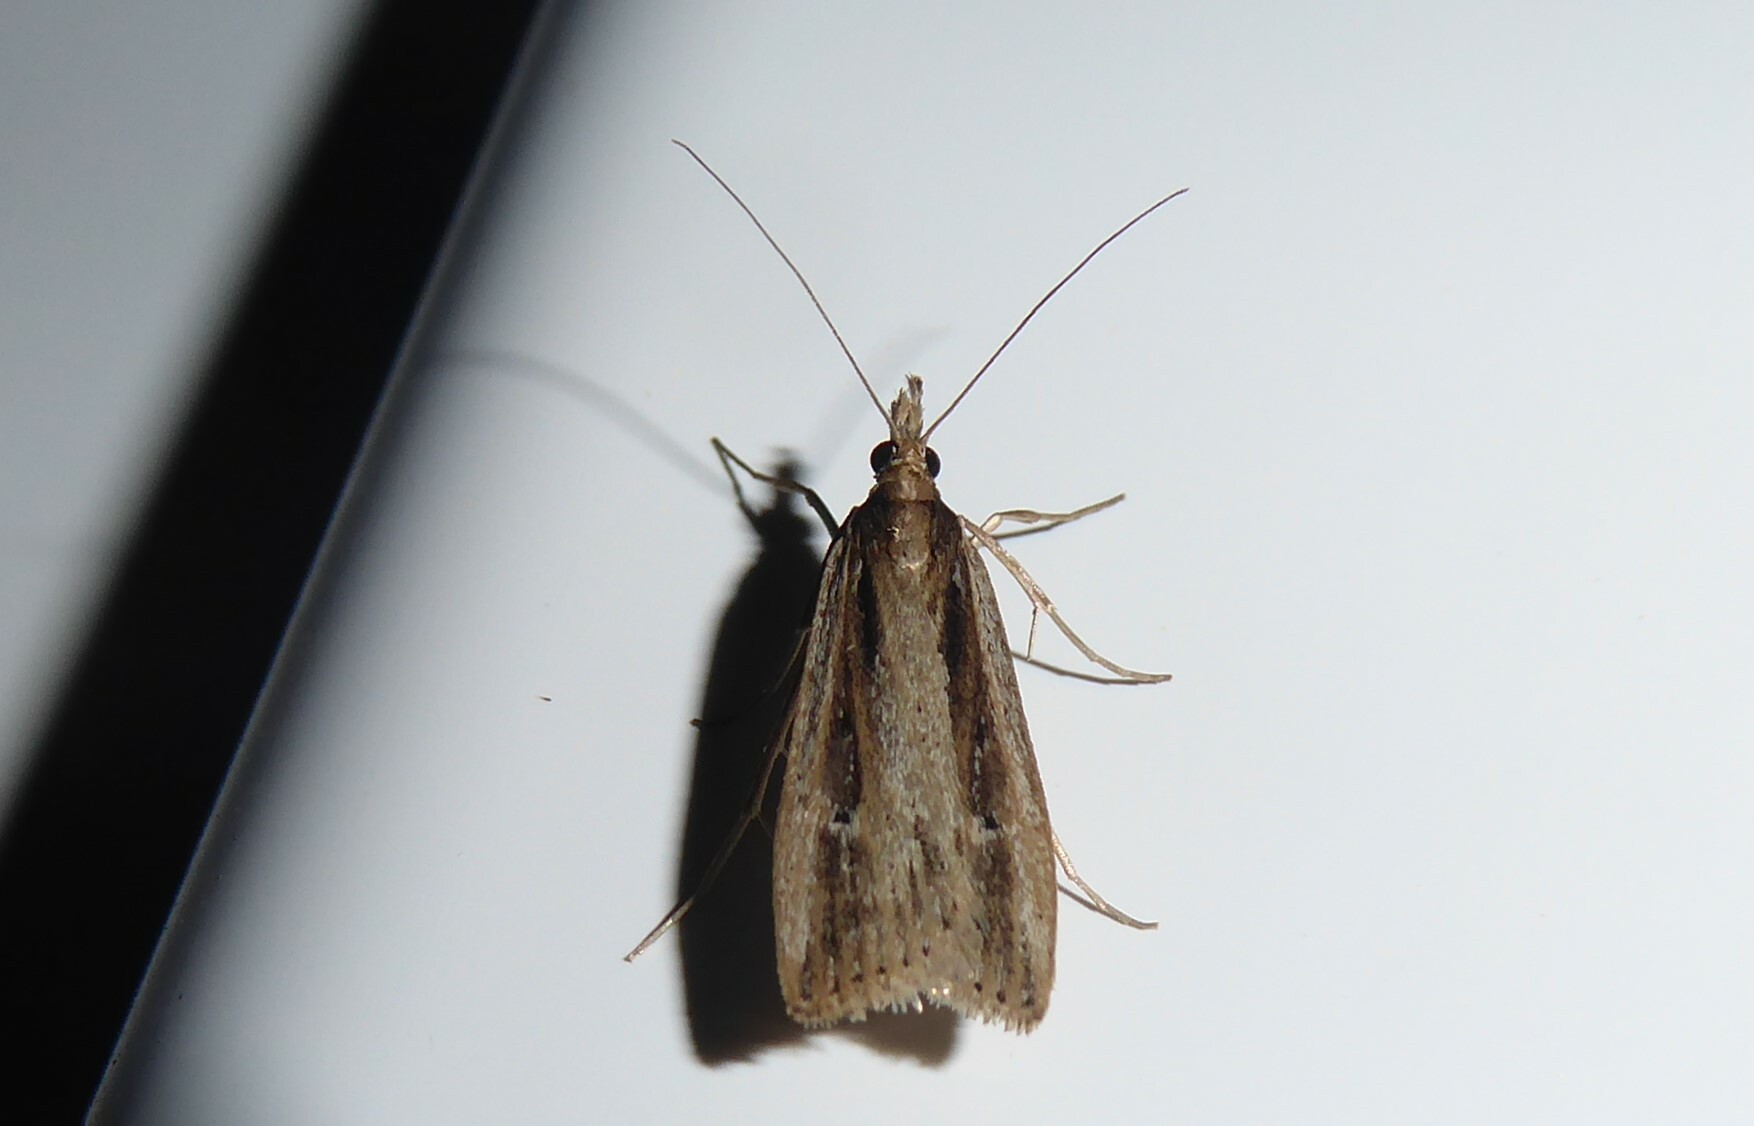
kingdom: Animalia
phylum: Arthropoda
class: Insecta
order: Lepidoptera
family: Crambidae
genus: Eudonia
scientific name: Eudonia sabulosella
